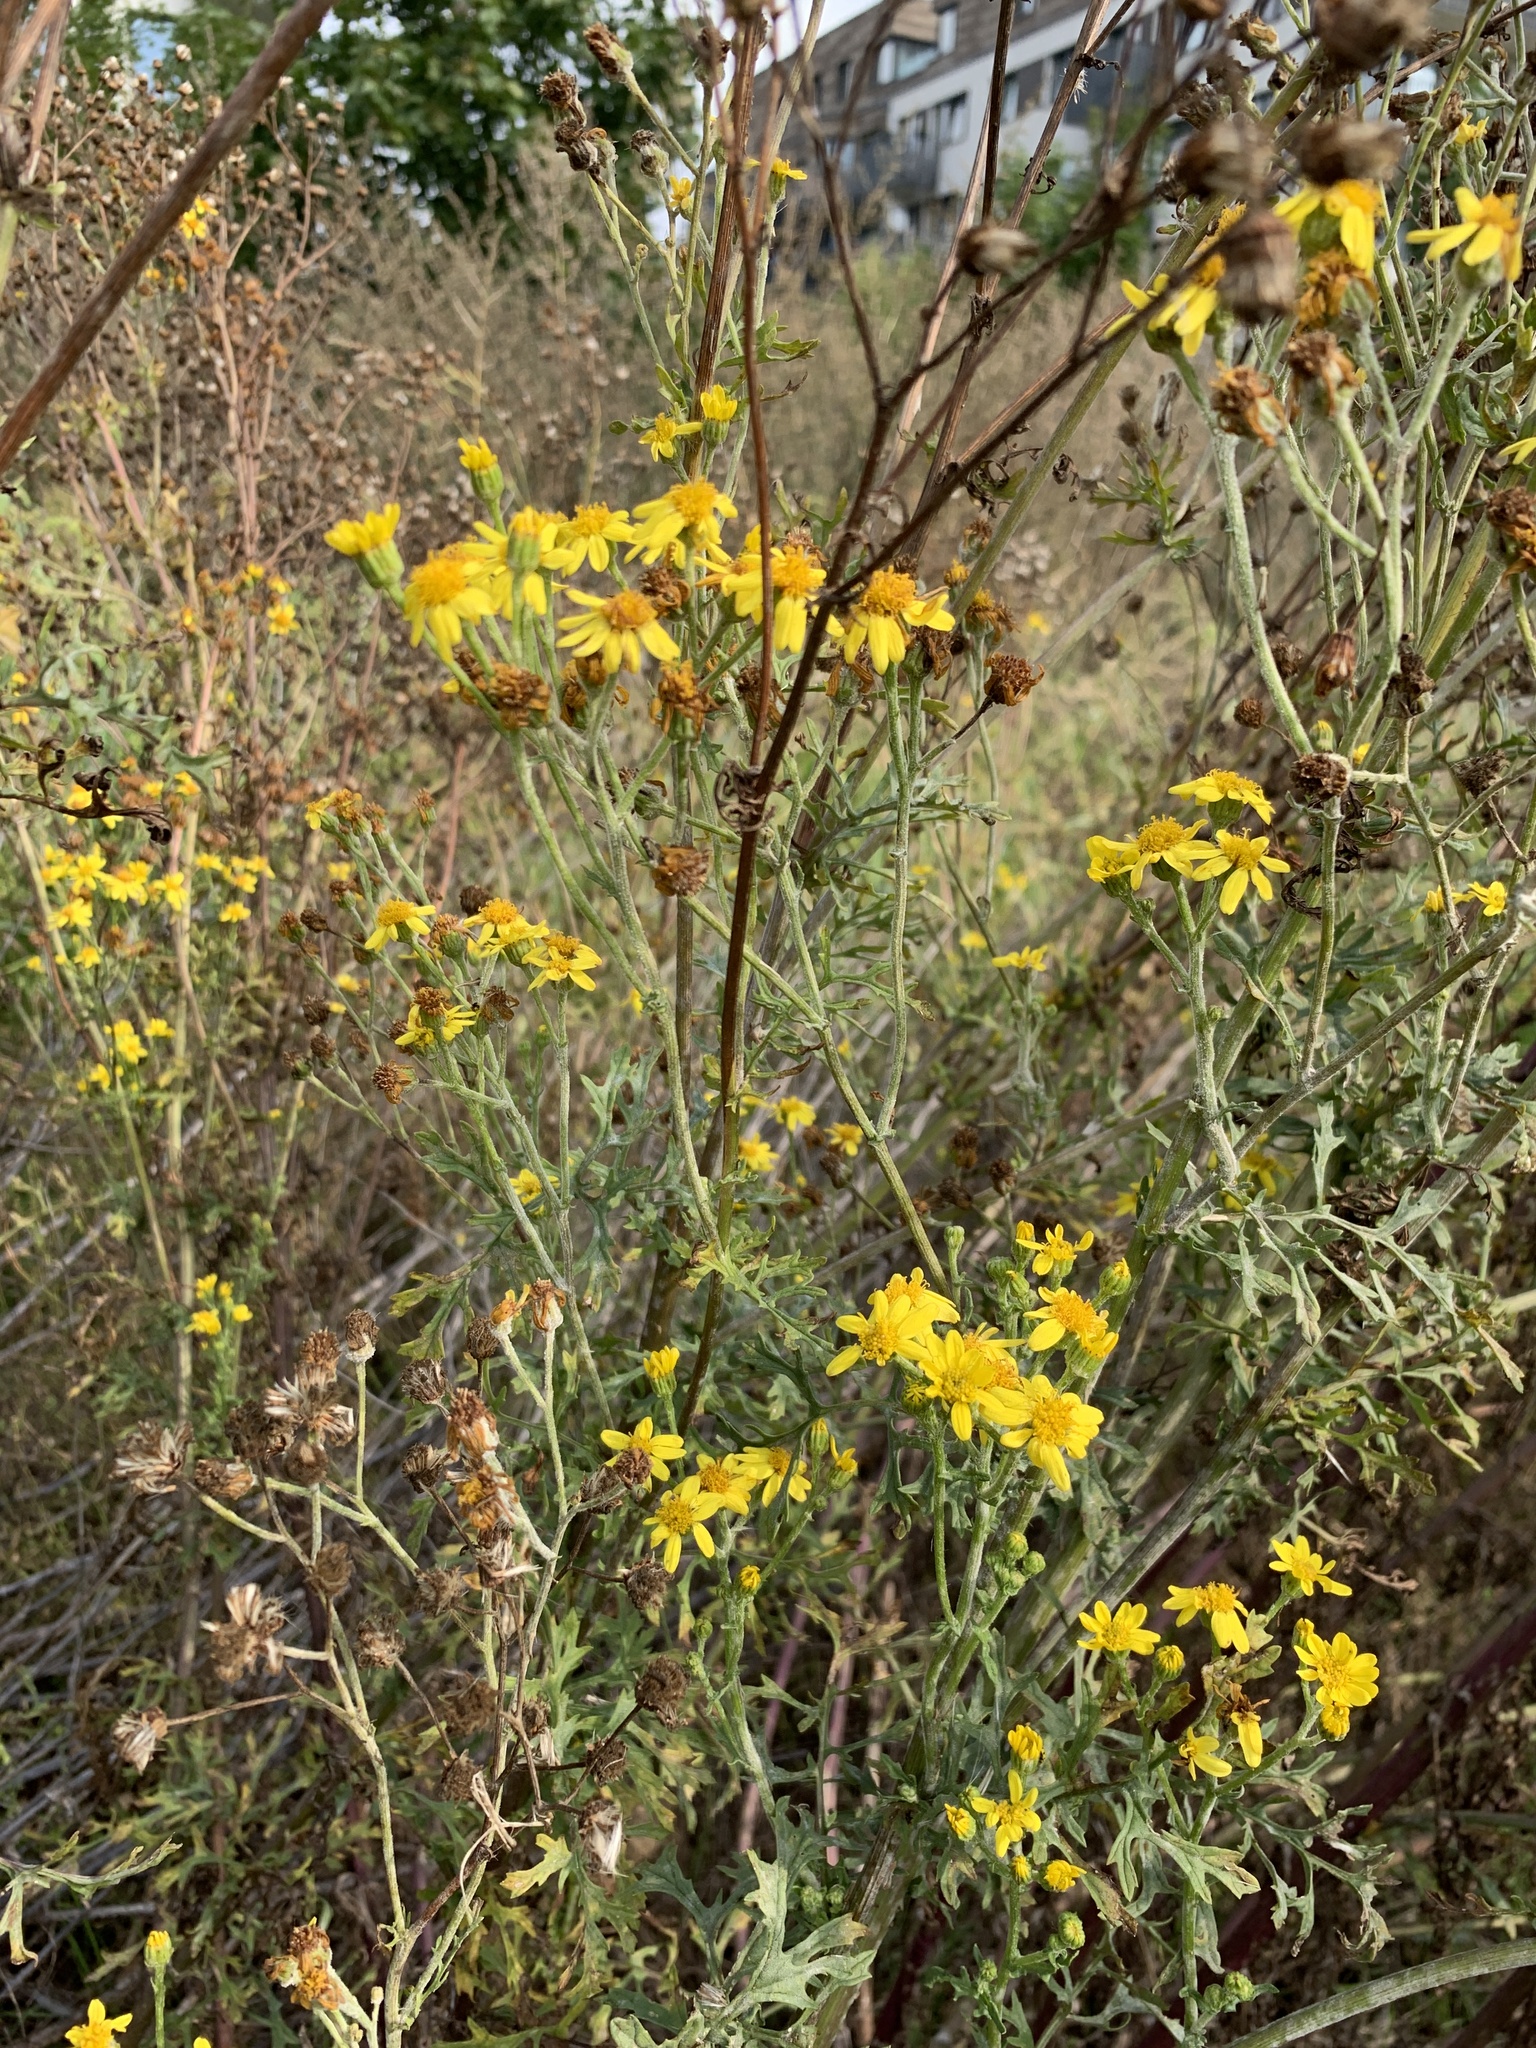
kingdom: Plantae
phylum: Tracheophyta
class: Magnoliopsida
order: Asterales
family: Asteraceae
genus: Jacobaea
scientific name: Jacobaea vulgaris
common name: Stinking willie
